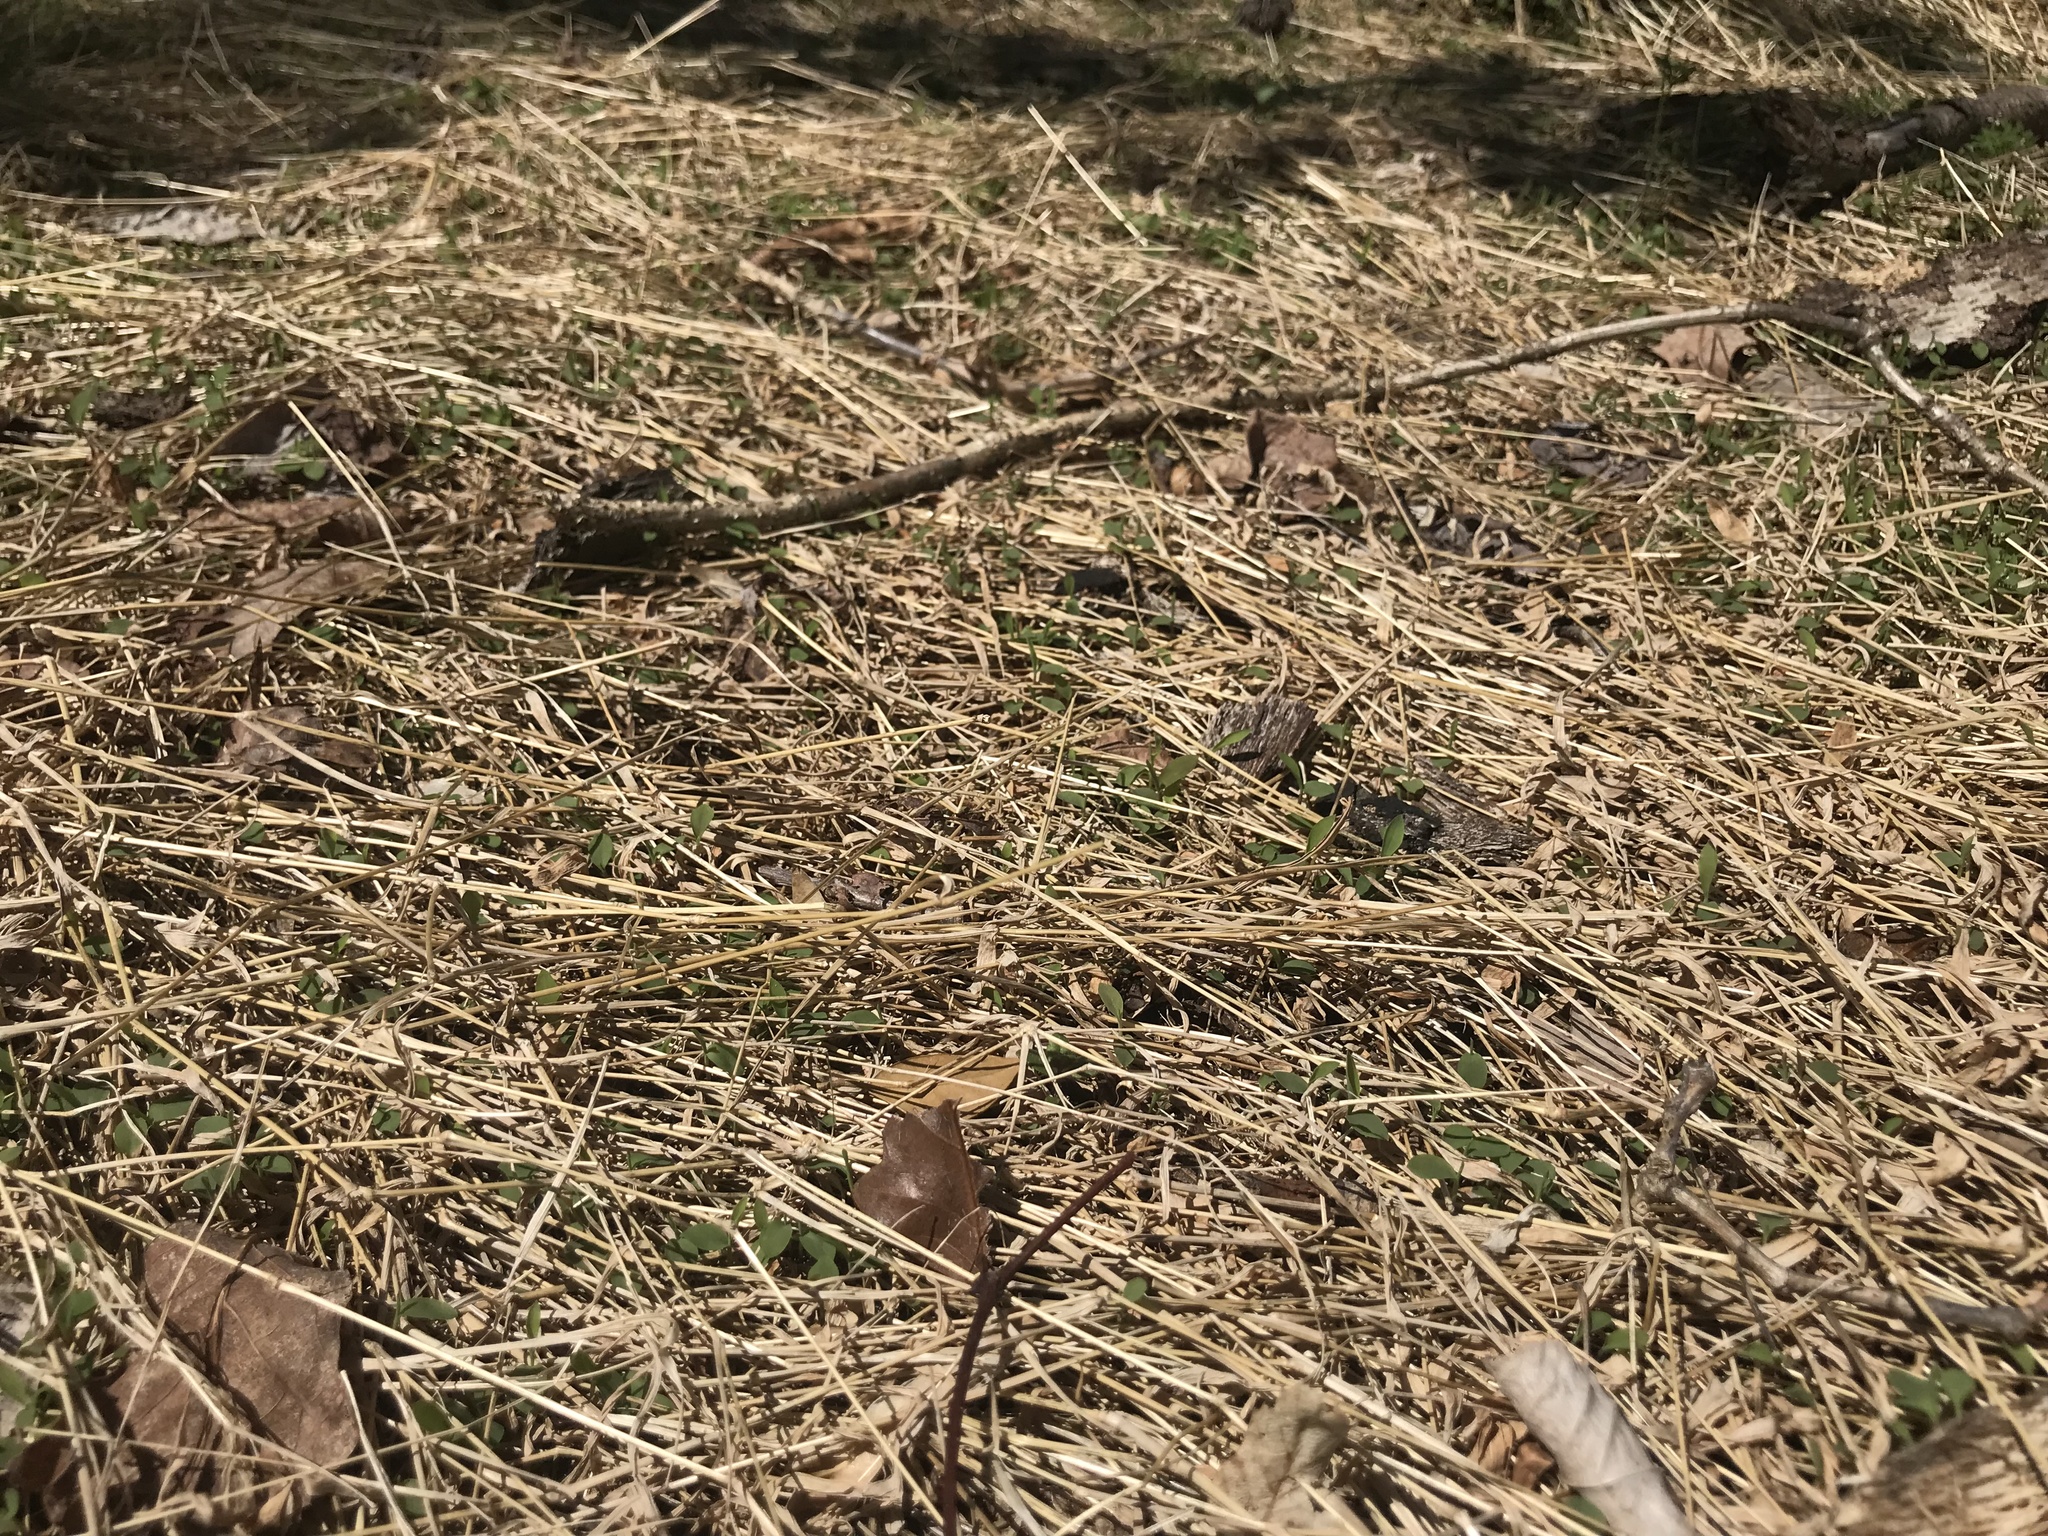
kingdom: Plantae
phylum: Tracheophyta
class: Liliopsida
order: Poales
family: Poaceae
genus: Microstegium
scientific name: Microstegium vimineum
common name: Japanese stiltgrass
